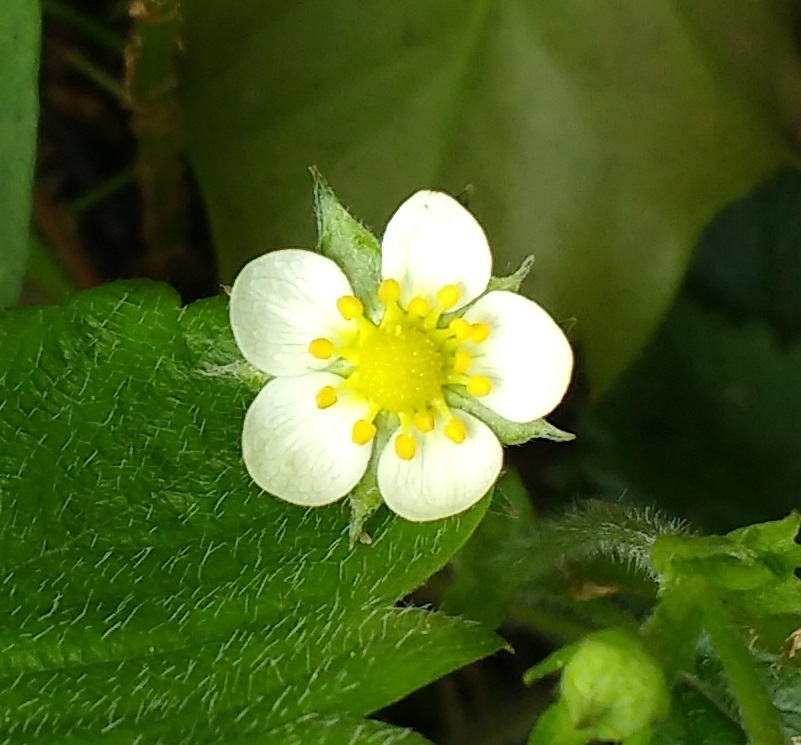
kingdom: Plantae
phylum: Tracheophyta
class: Magnoliopsida
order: Rosales
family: Rosaceae
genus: Fragaria
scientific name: Fragaria vesca
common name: Wild strawberry
